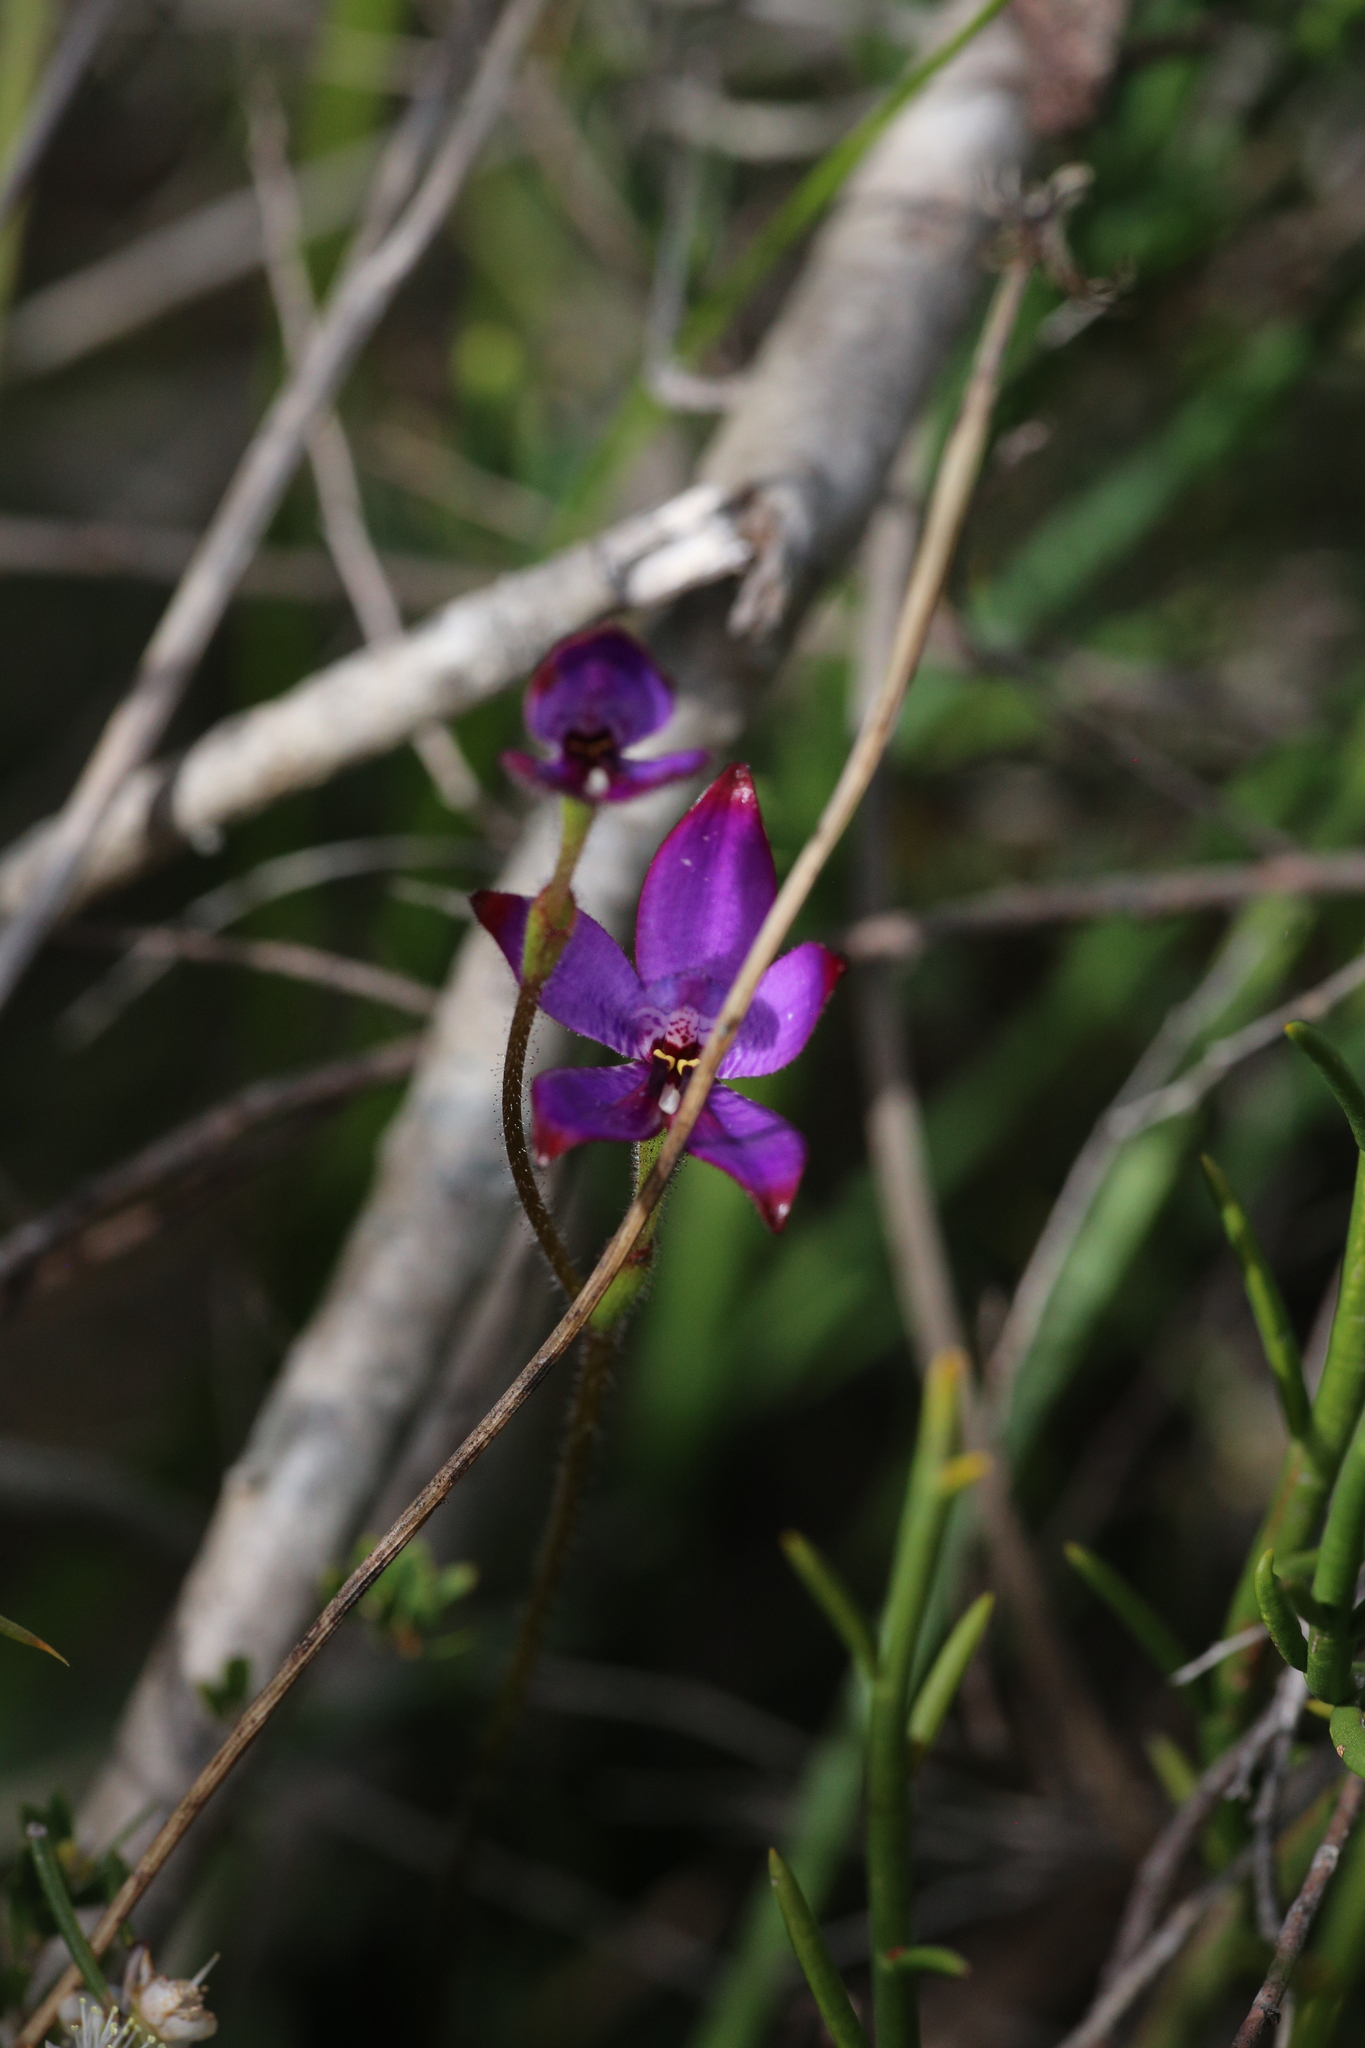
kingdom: Plantae
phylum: Tracheophyta
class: Liliopsida
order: Asparagales
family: Orchidaceae
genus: Caladenia
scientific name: Caladenia brunonis
